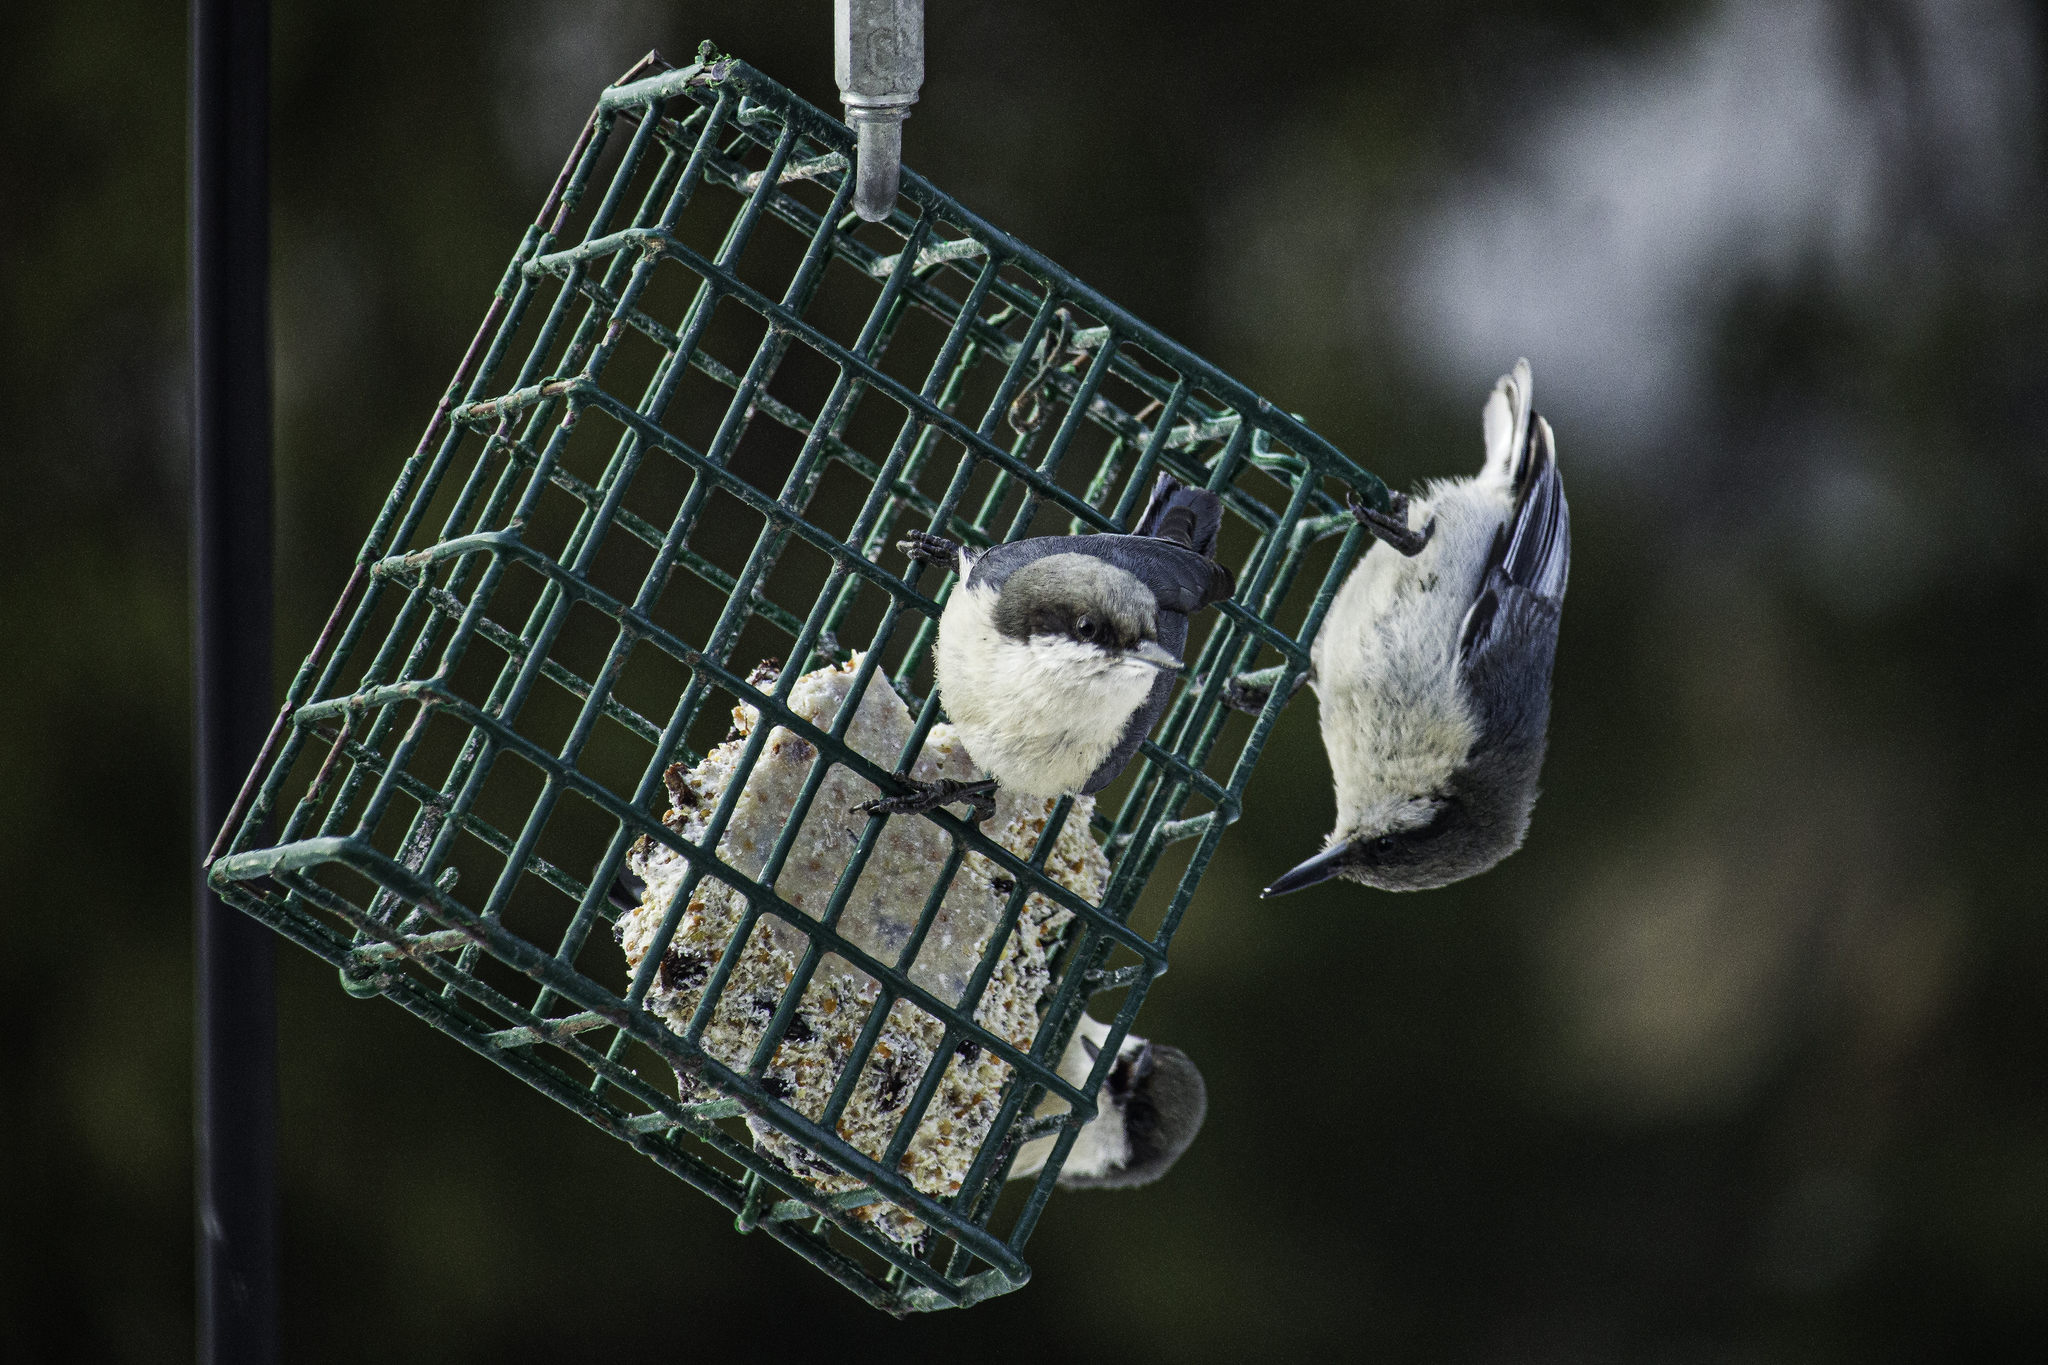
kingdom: Animalia
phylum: Chordata
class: Aves
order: Passeriformes
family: Sittidae
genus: Sitta
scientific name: Sitta pygmaea
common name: Pygmy nuthatch
